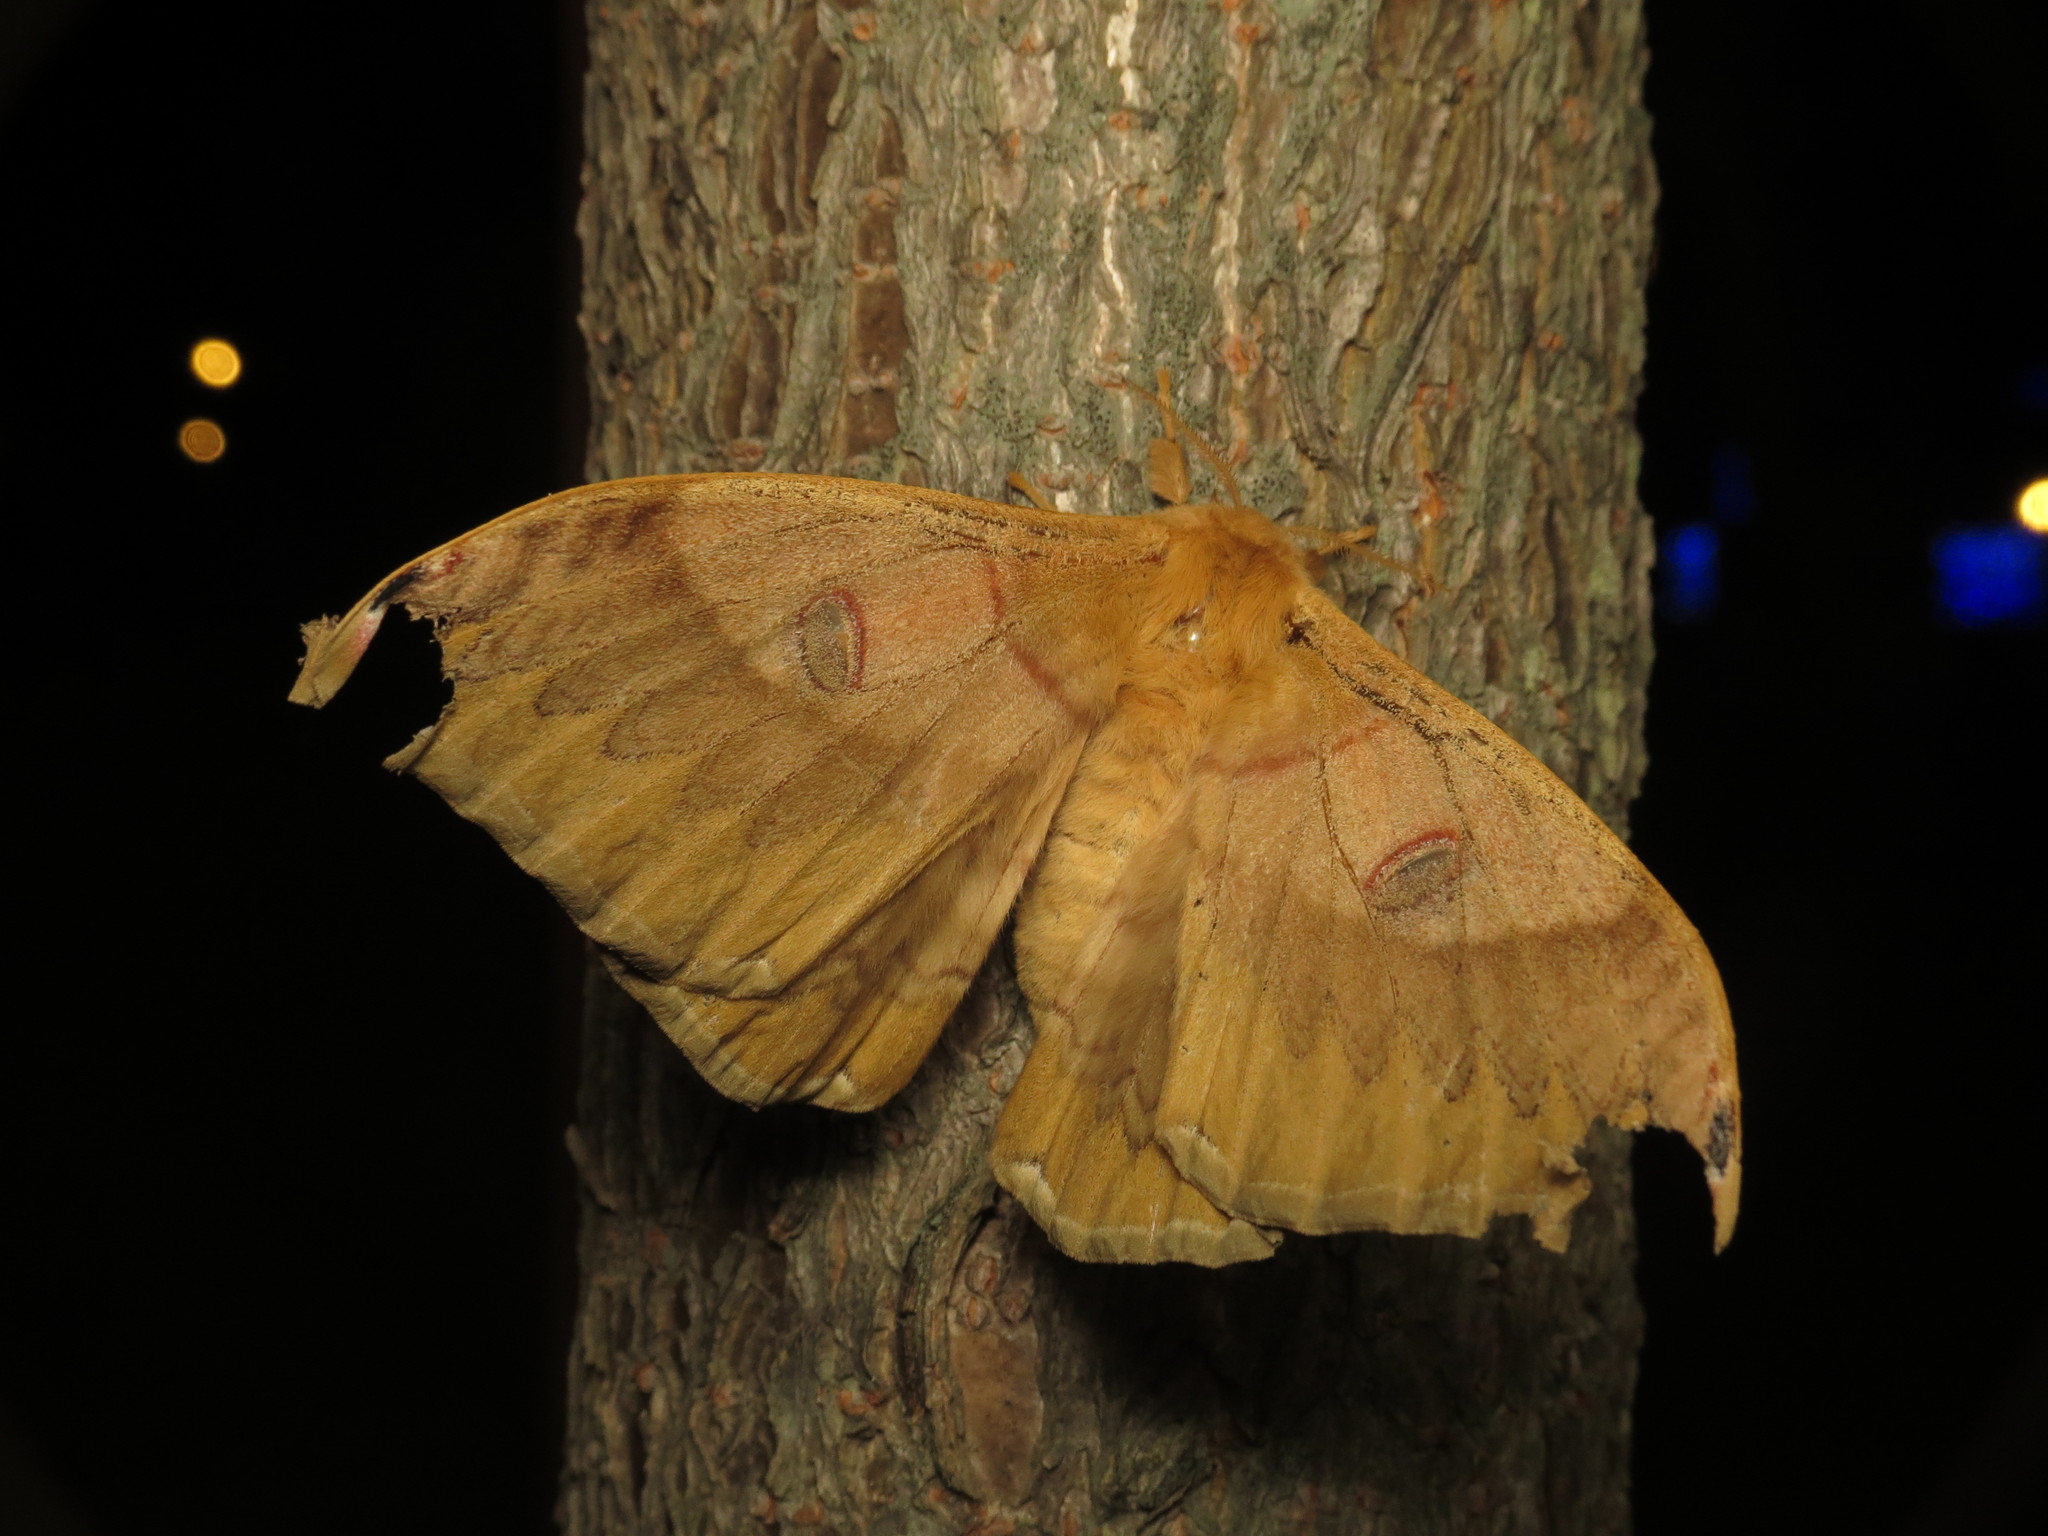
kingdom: Animalia
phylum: Arthropoda
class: Insecta
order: Lepidoptera
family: Saturniidae
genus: Saturnia
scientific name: Saturnia japonica
